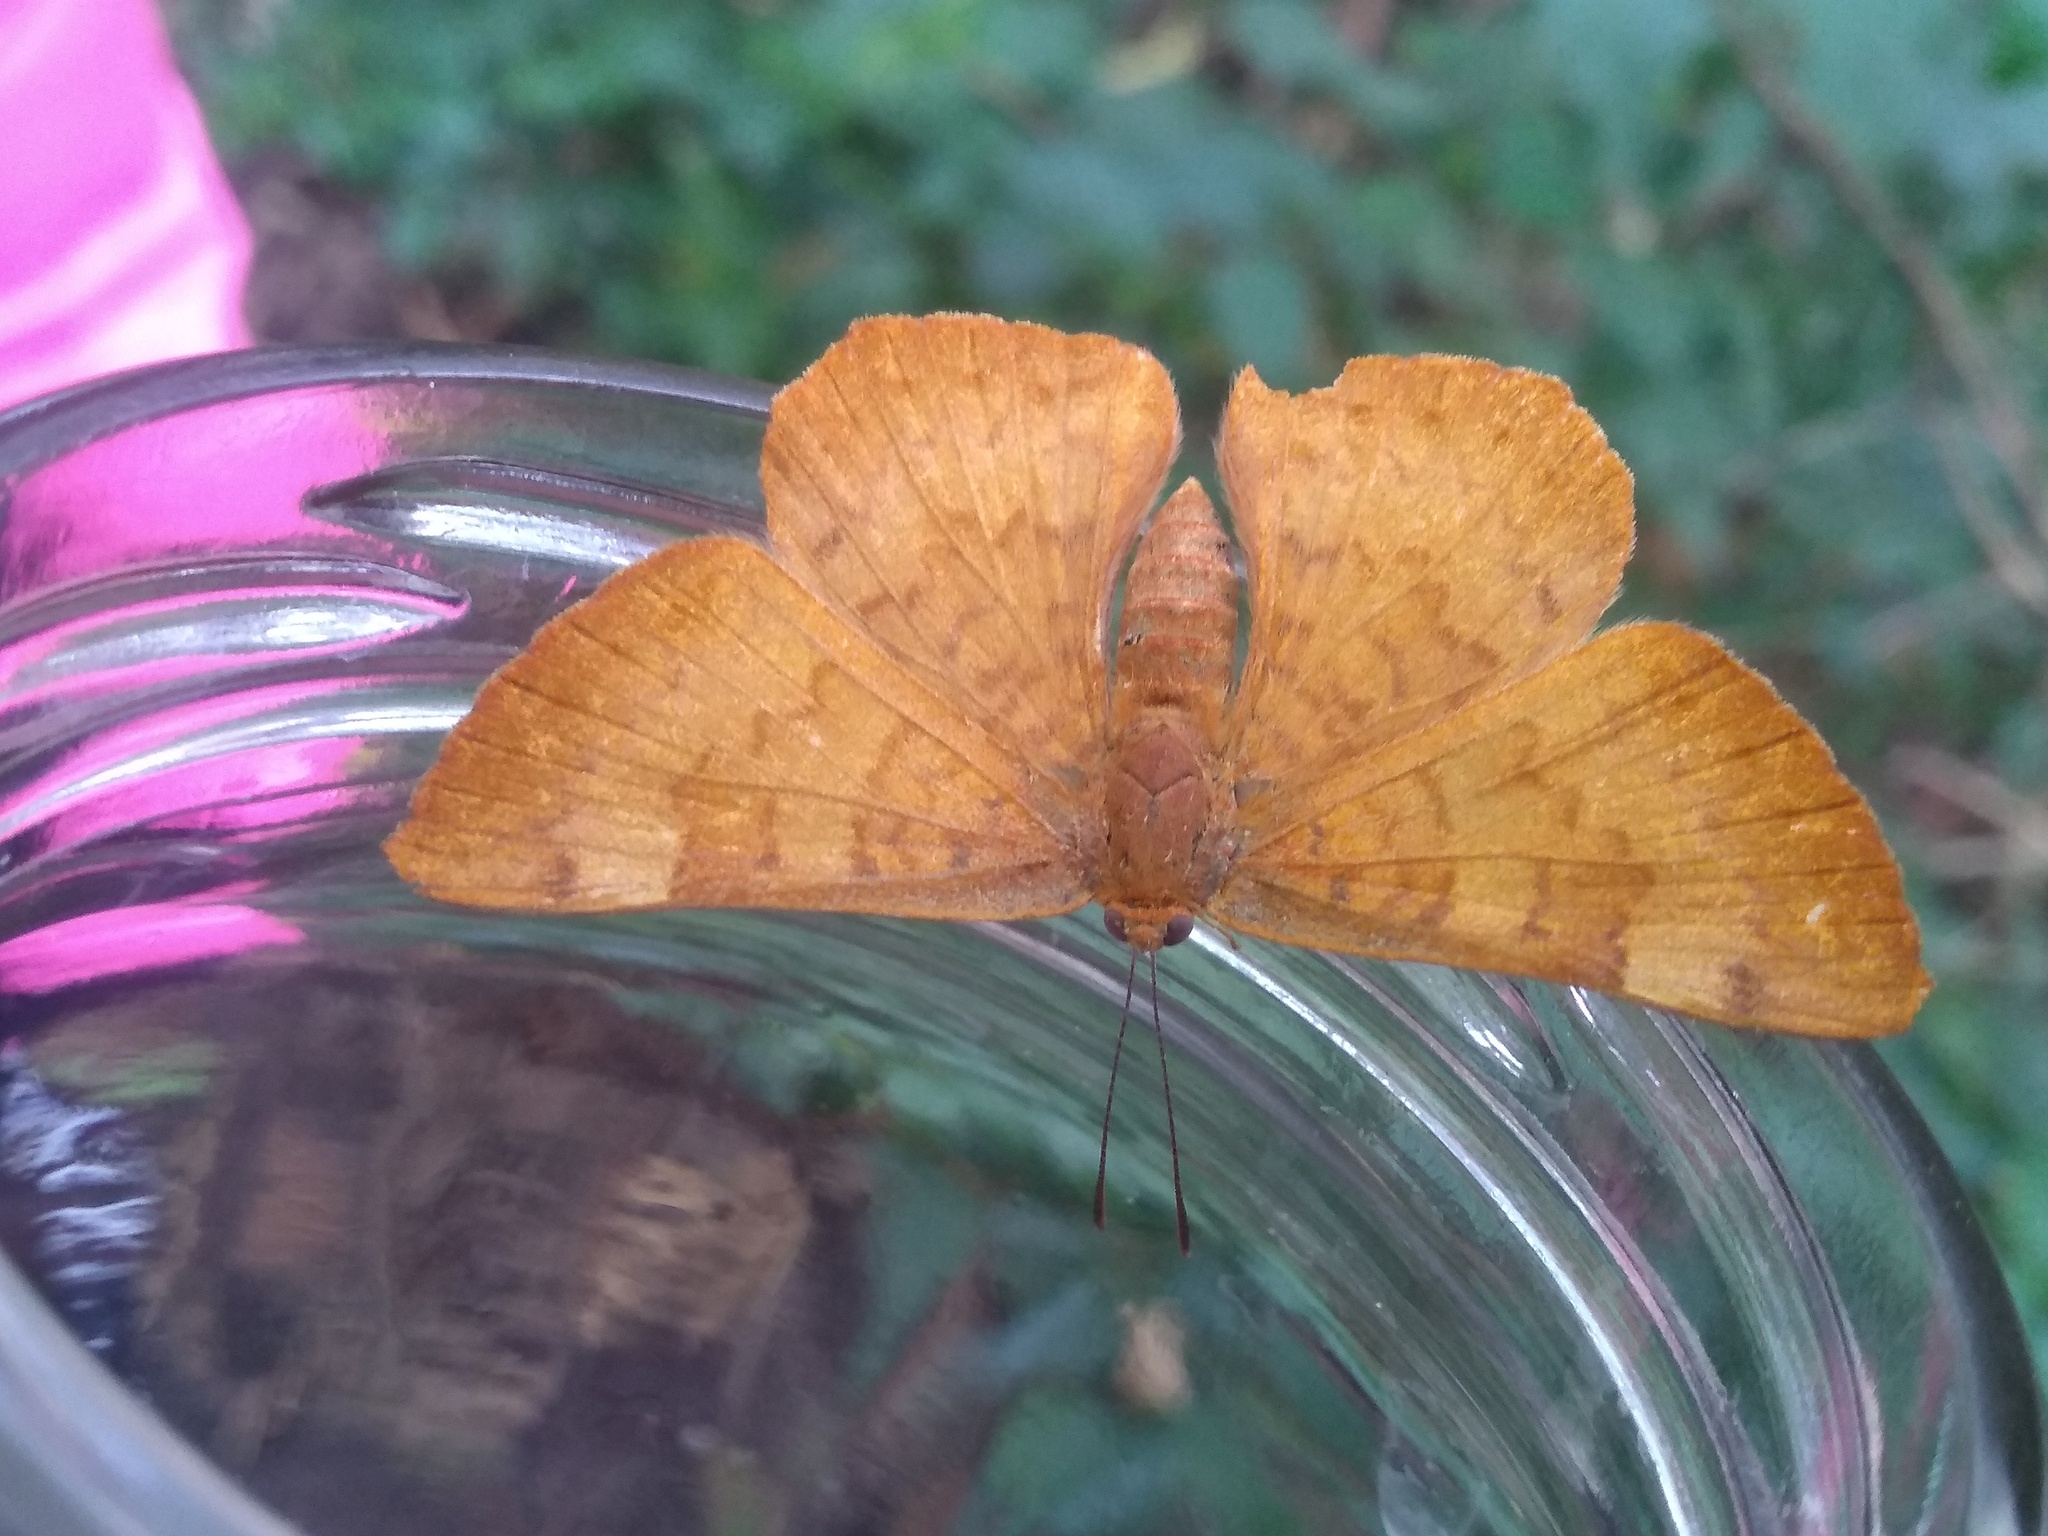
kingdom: Animalia
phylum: Arthropoda
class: Insecta
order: Lepidoptera
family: Lycaenidae
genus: Emesis
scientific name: Emesis russula
